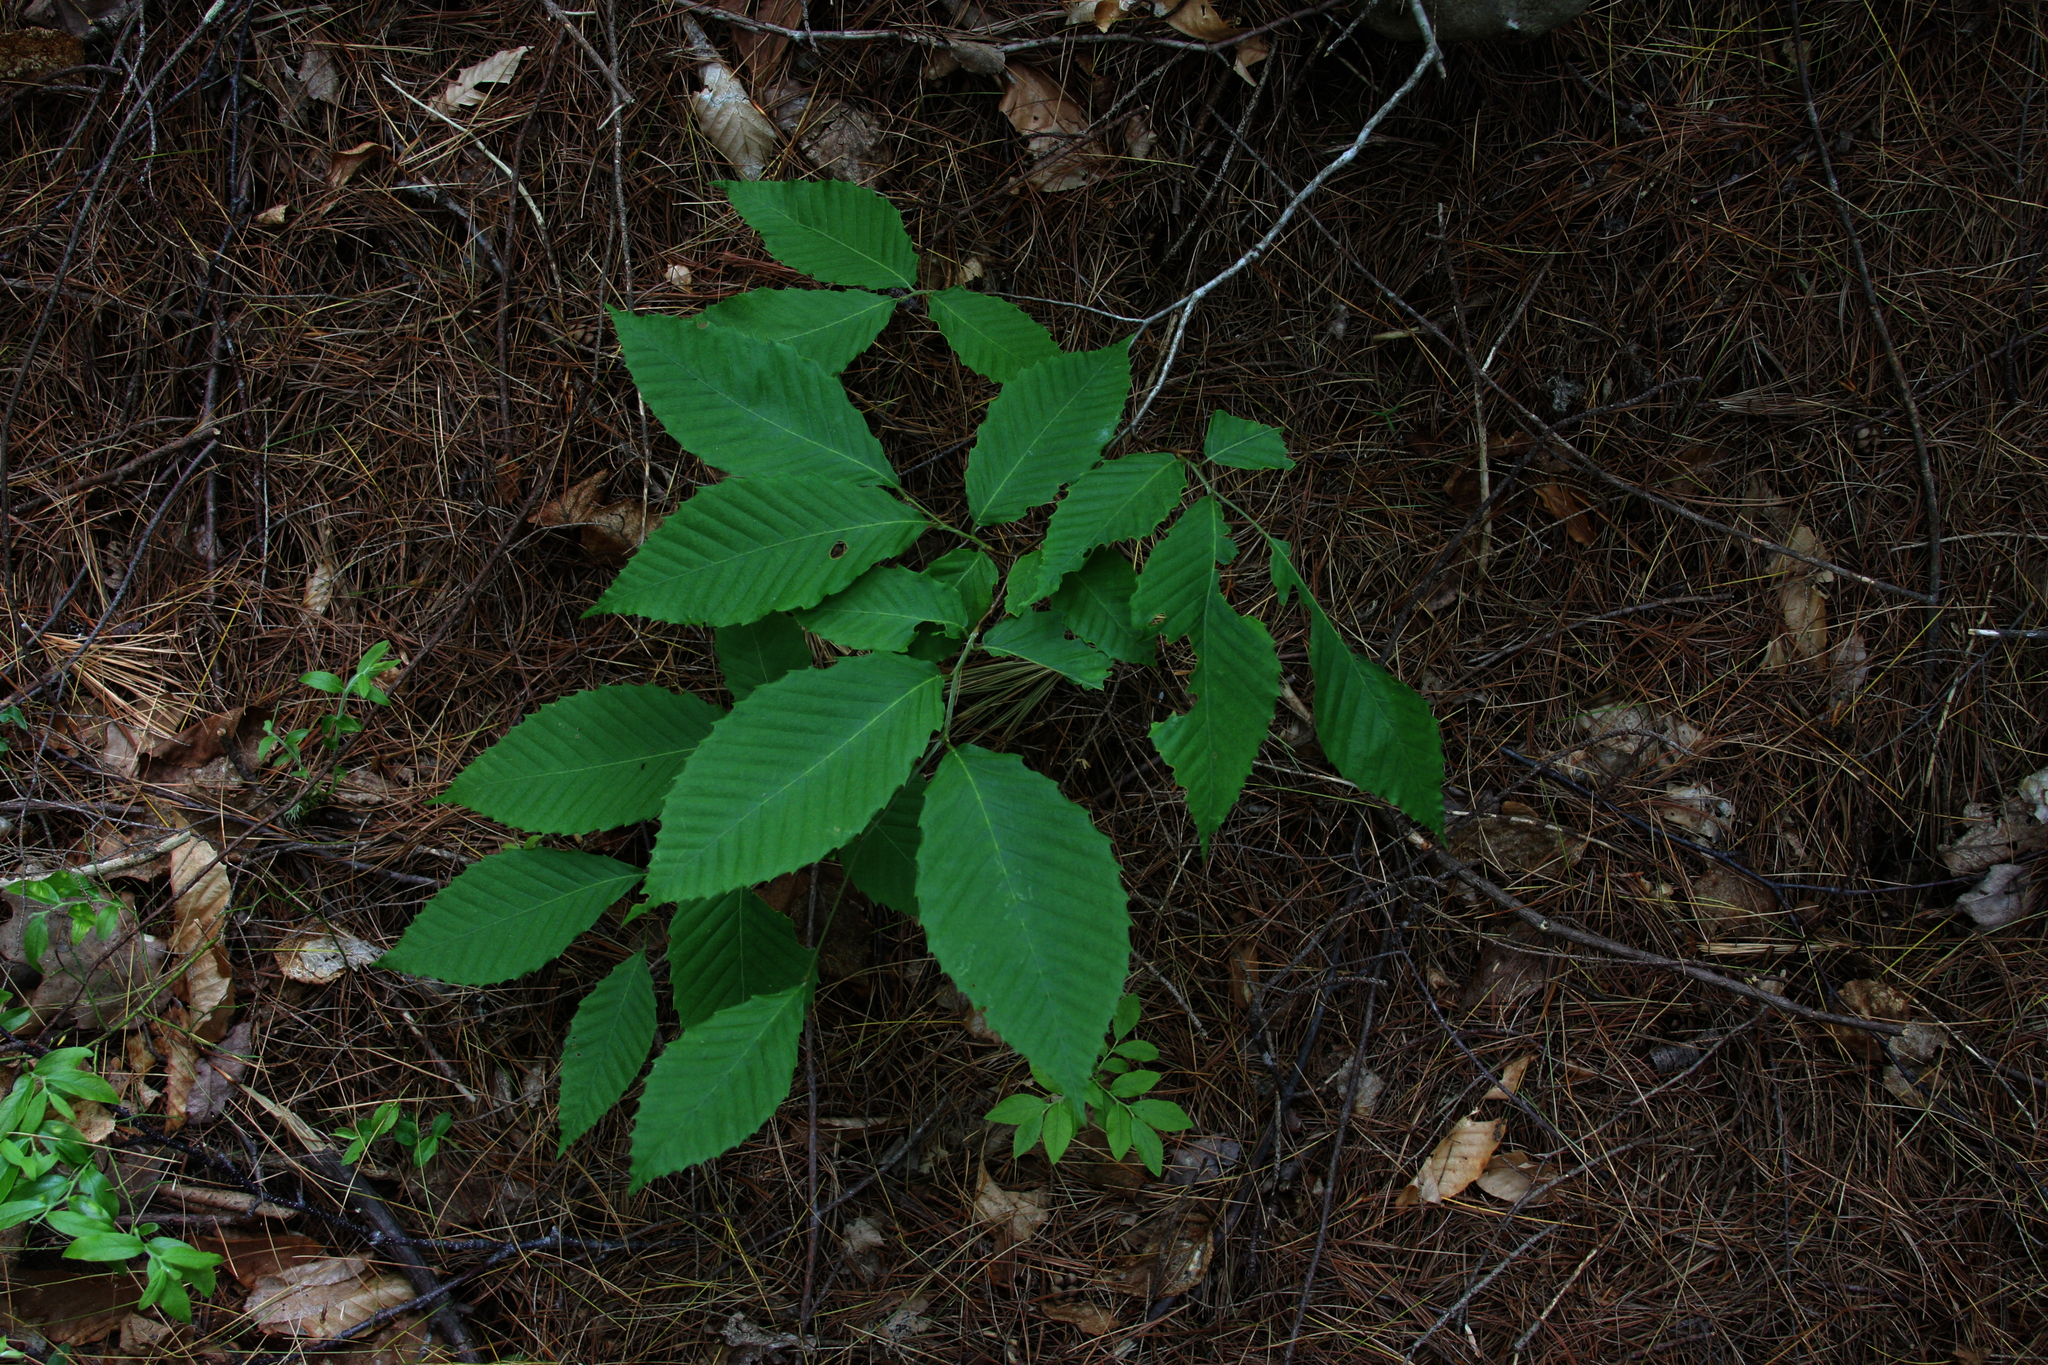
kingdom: Plantae
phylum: Tracheophyta
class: Magnoliopsida
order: Fagales
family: Fagaceae
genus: Fagus
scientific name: Fagus grandifolia
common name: American beech
